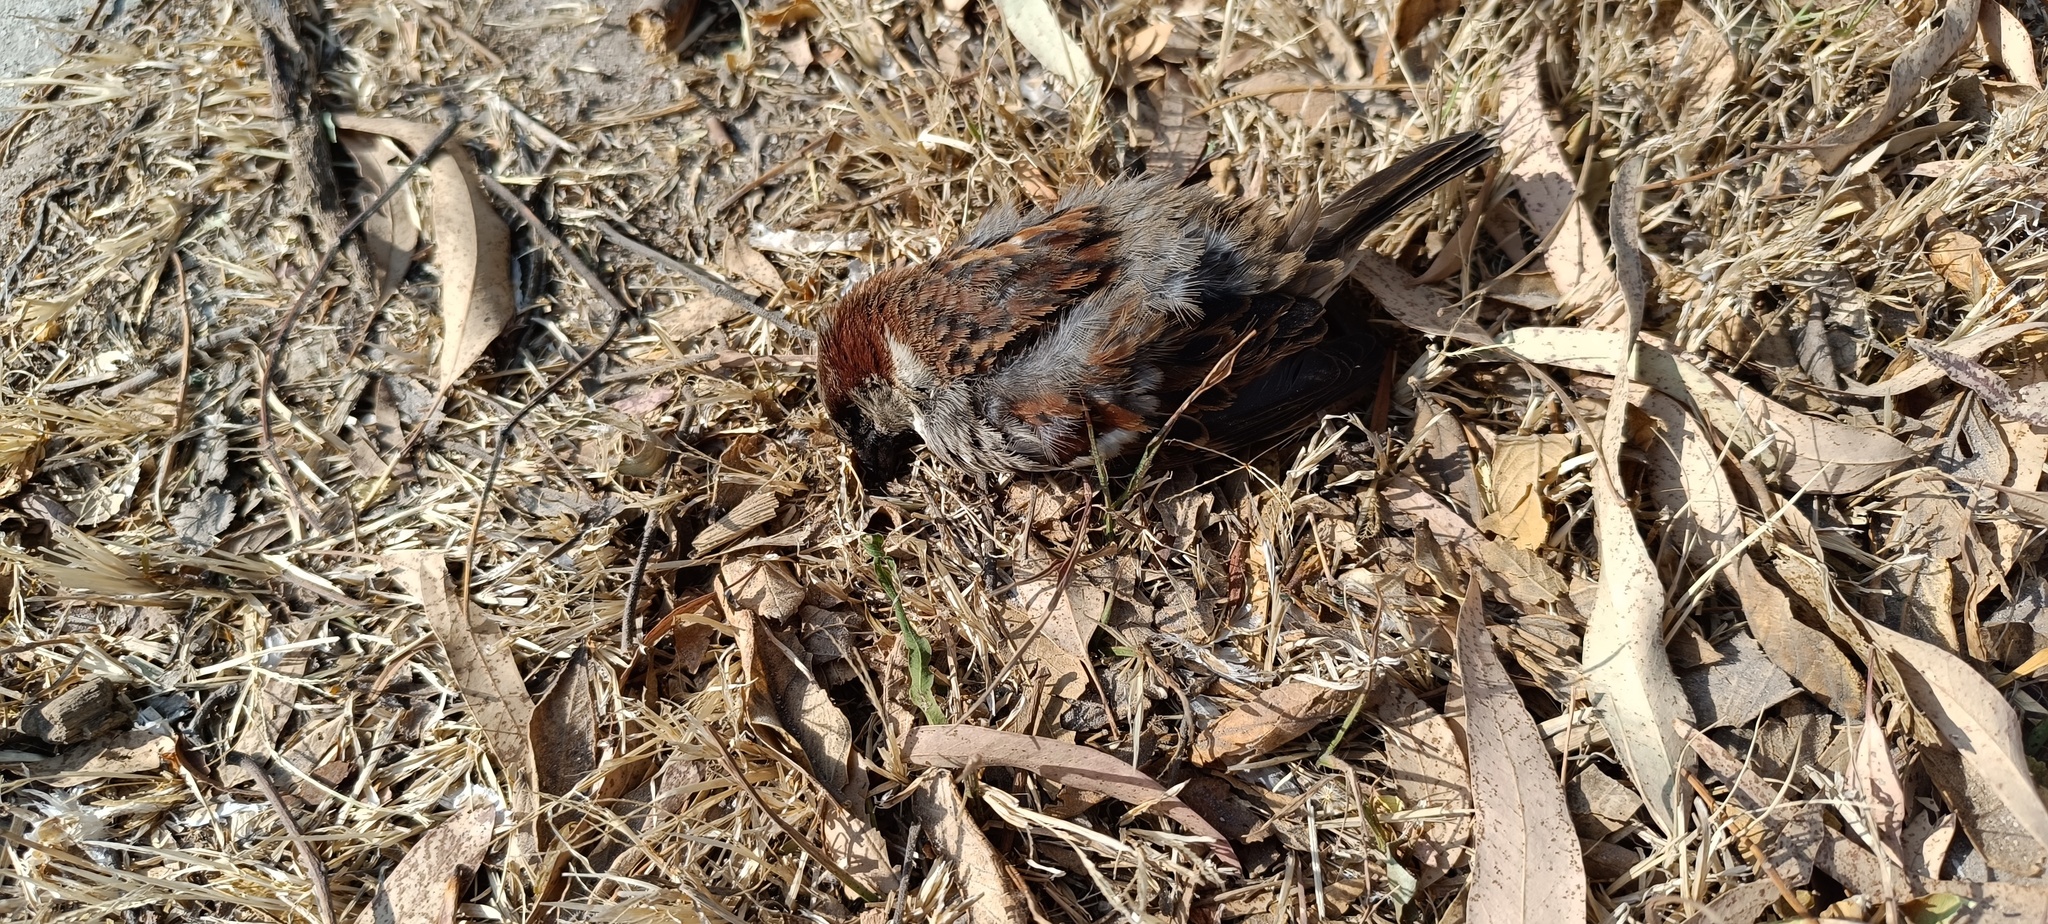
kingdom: Animalia
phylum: Chordata
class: Aves
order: Passeriformes
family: Passeridae
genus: Passer
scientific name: Passer domesticus
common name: House sparrow
